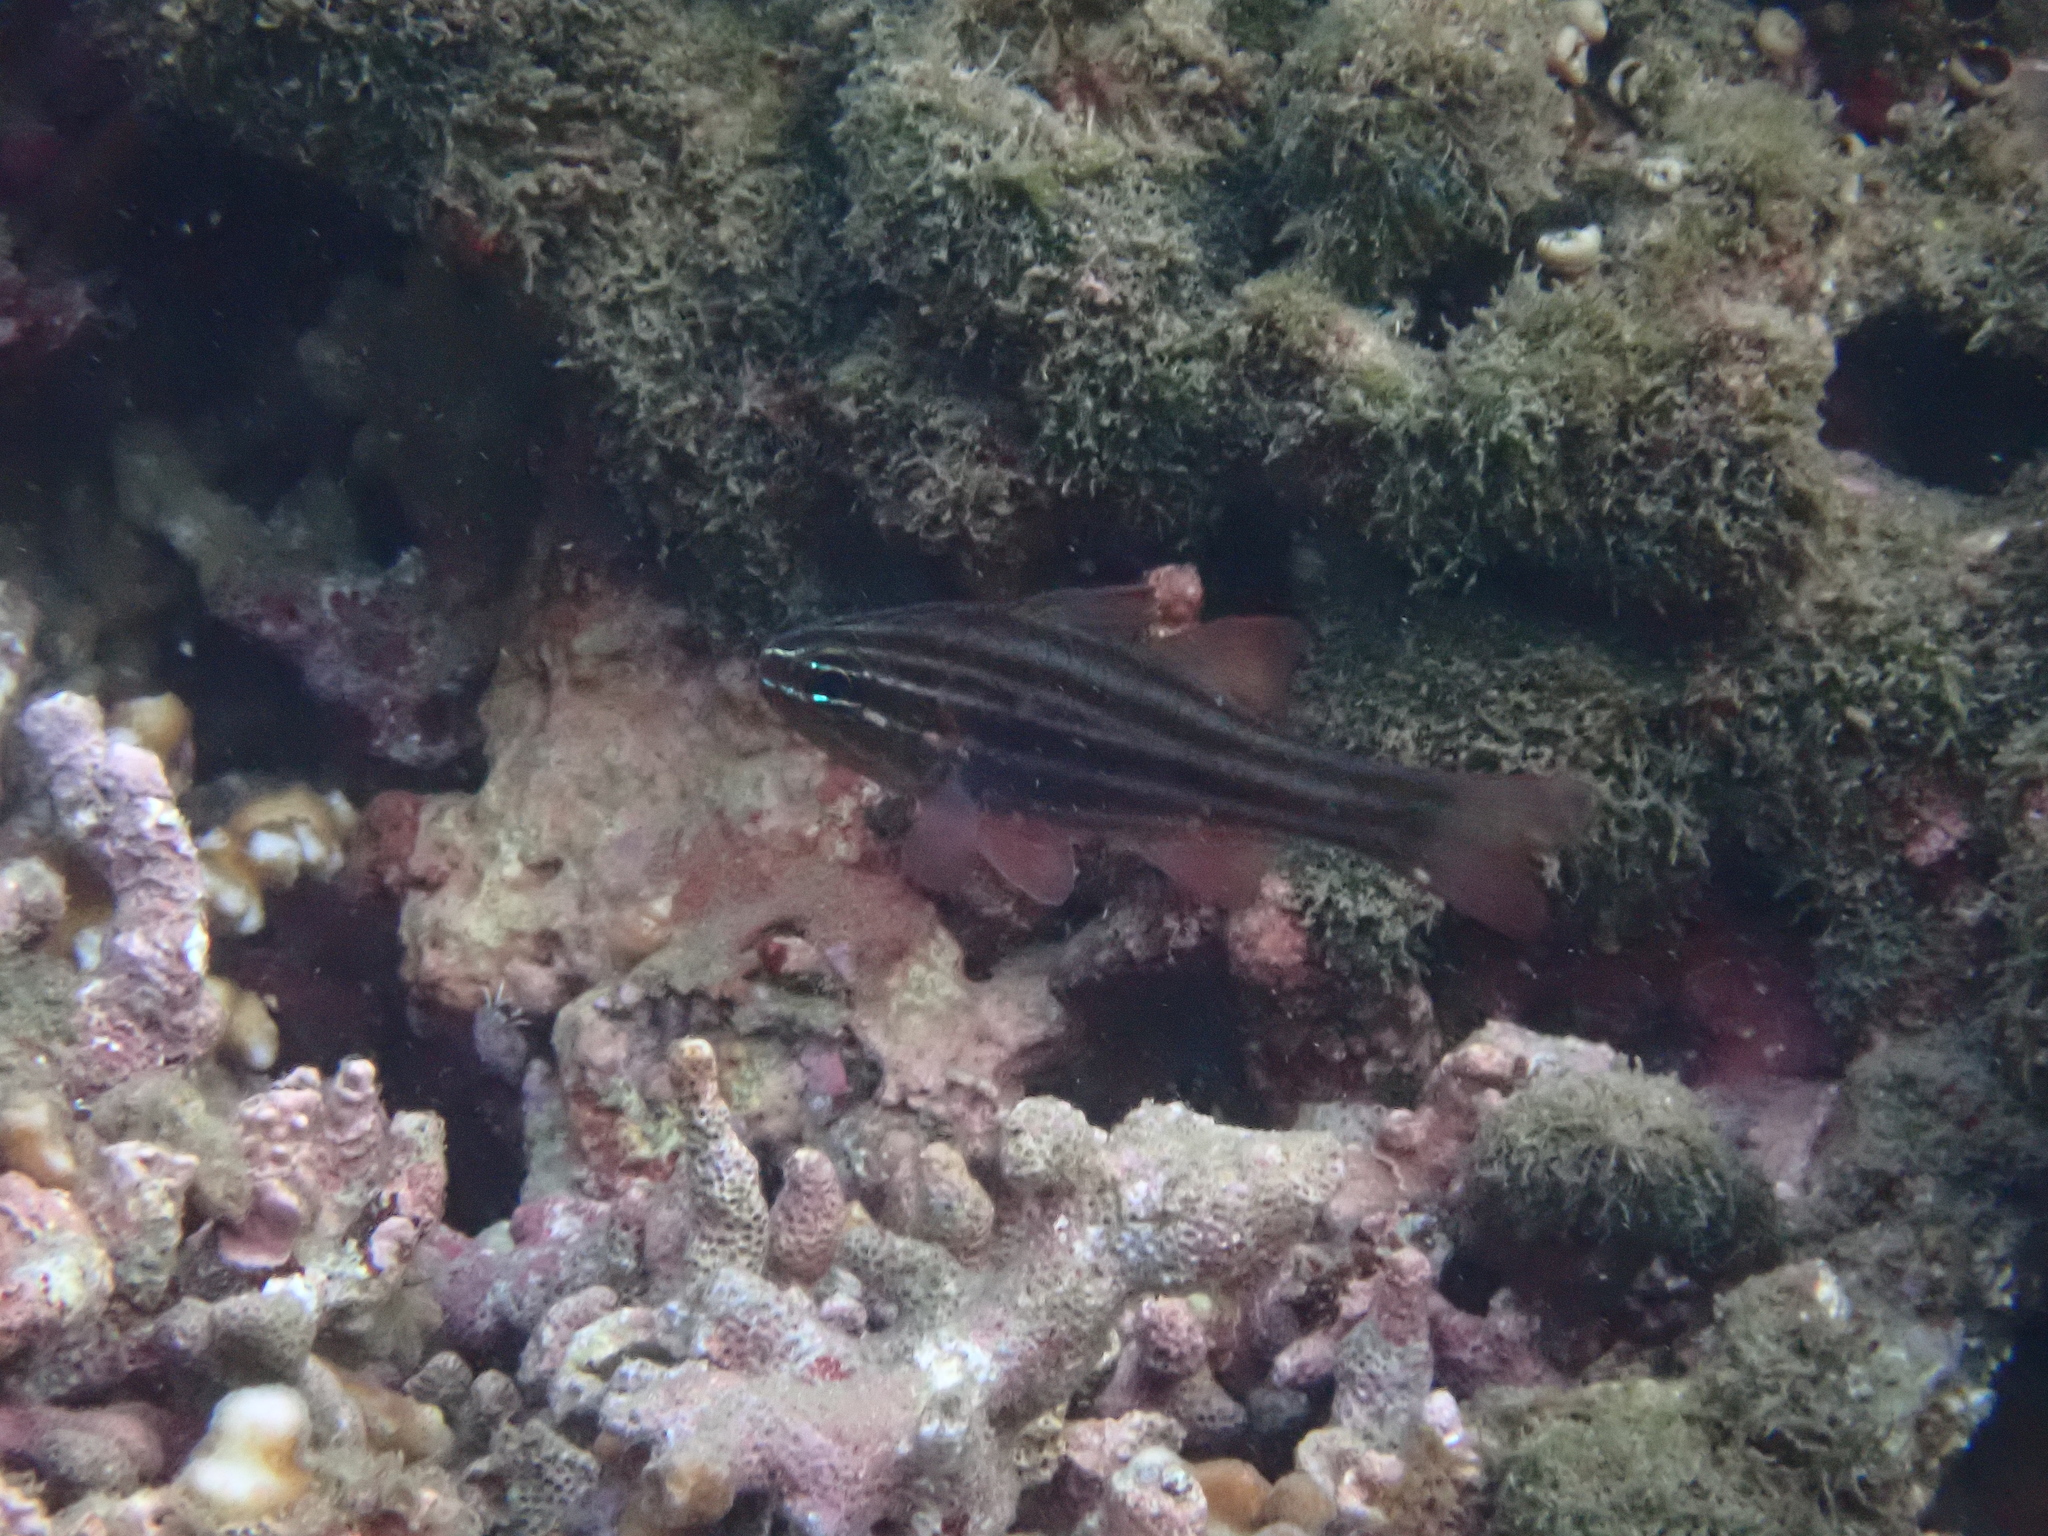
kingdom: Animalia
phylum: Chordata
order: Perciformes
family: Apogonidae
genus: Ostorhinchus
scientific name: Ostorhinchus cookii
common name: Cook's cardinalfish
